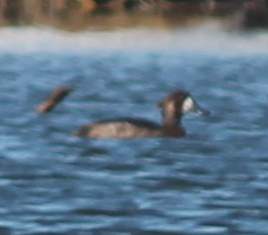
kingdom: Animalia
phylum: Chordata
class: Aves
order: Anseriformes
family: Anatidae
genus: Aythya
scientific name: Aythya marila
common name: Greater scaup
